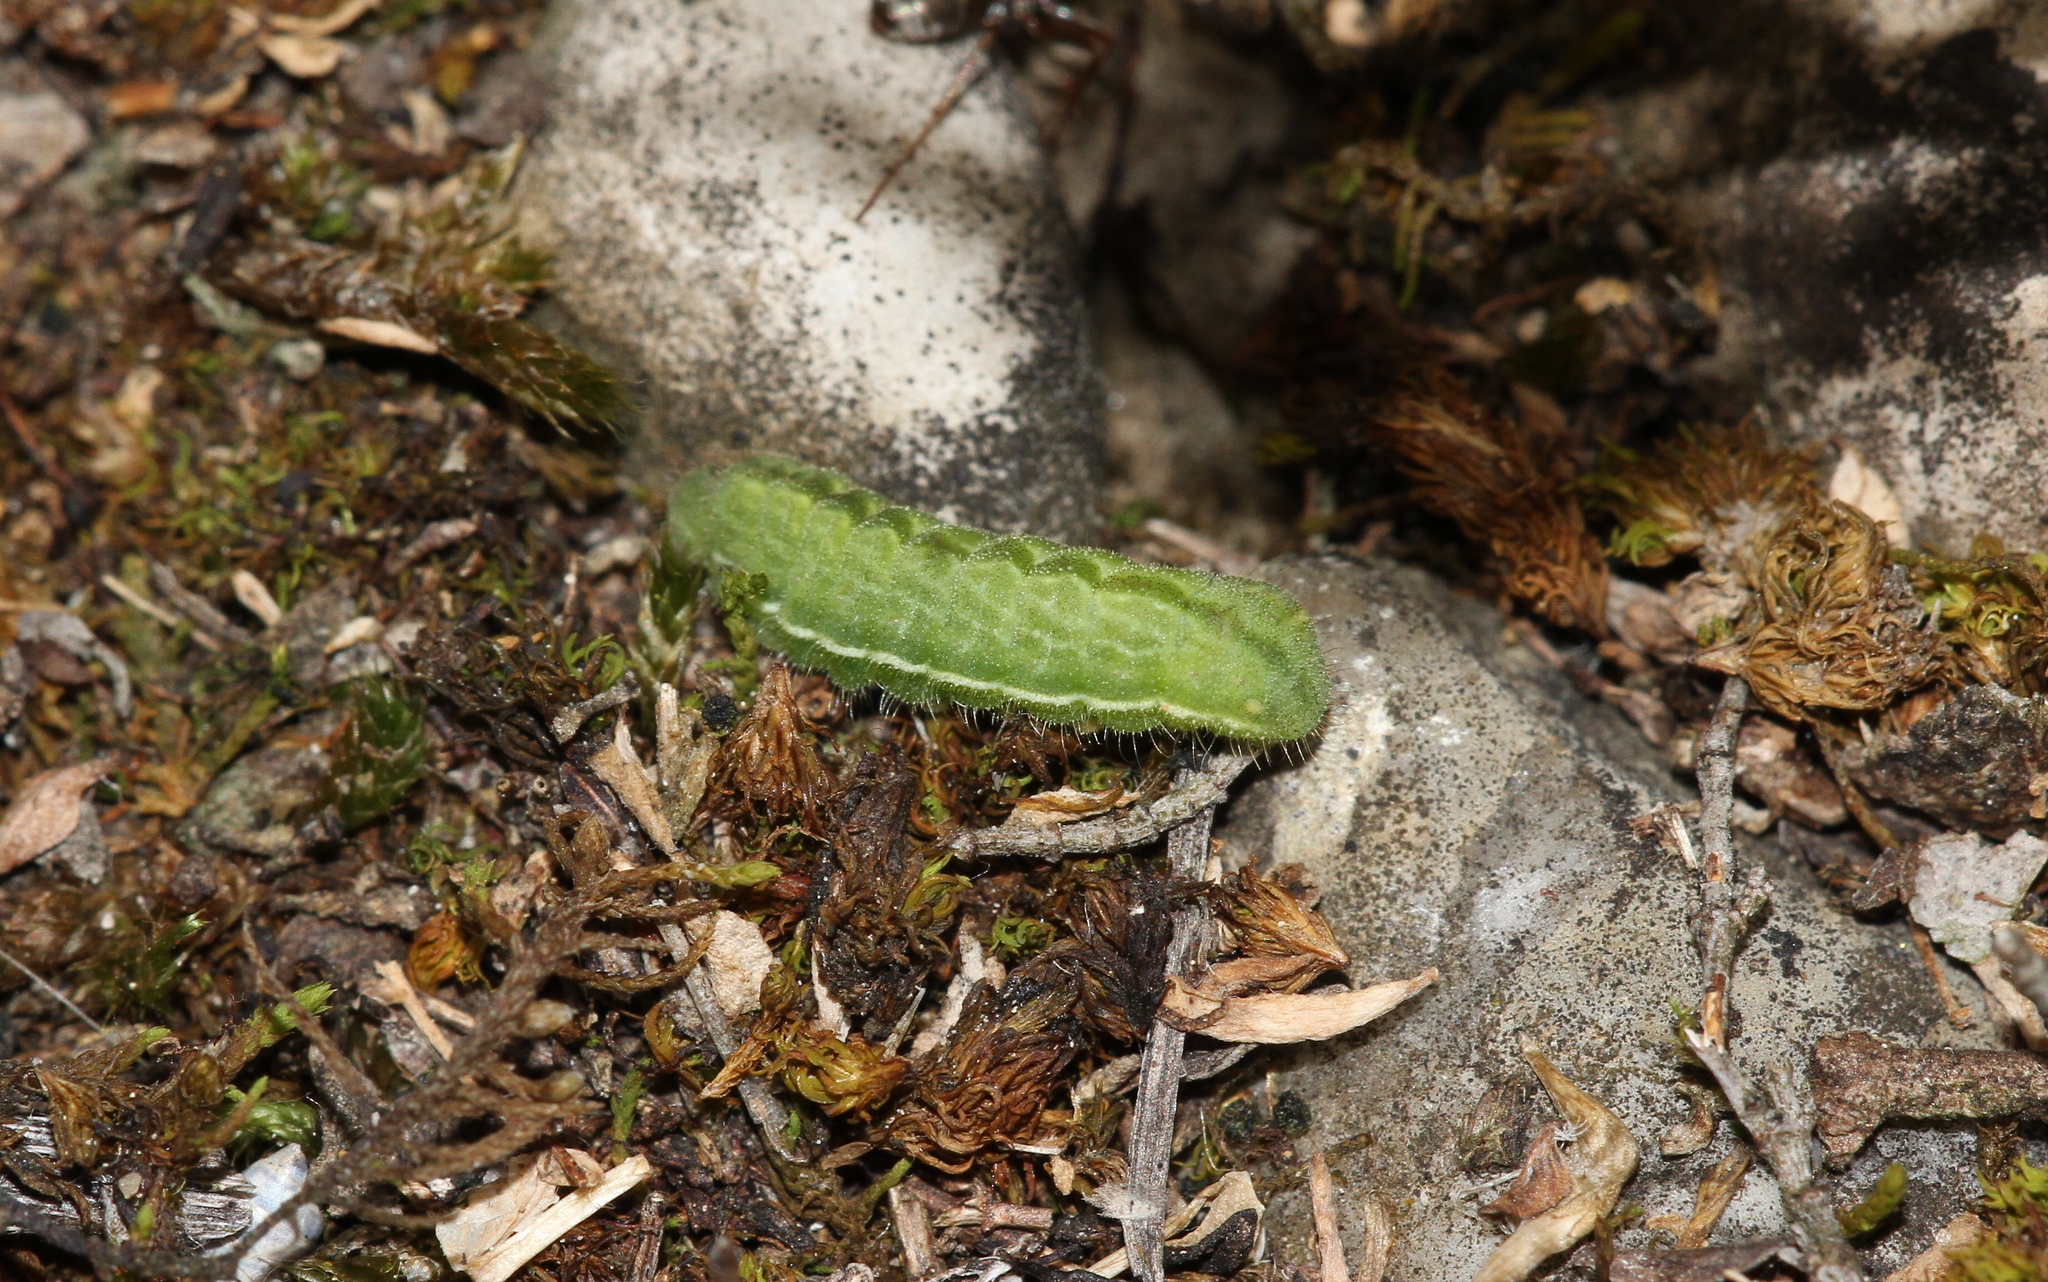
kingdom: Animalia
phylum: Arthropoda
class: Insecta
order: Lepidoptera
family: Lycaenidae
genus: Lycaeides
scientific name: Lycaeides idas
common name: Northern blue
